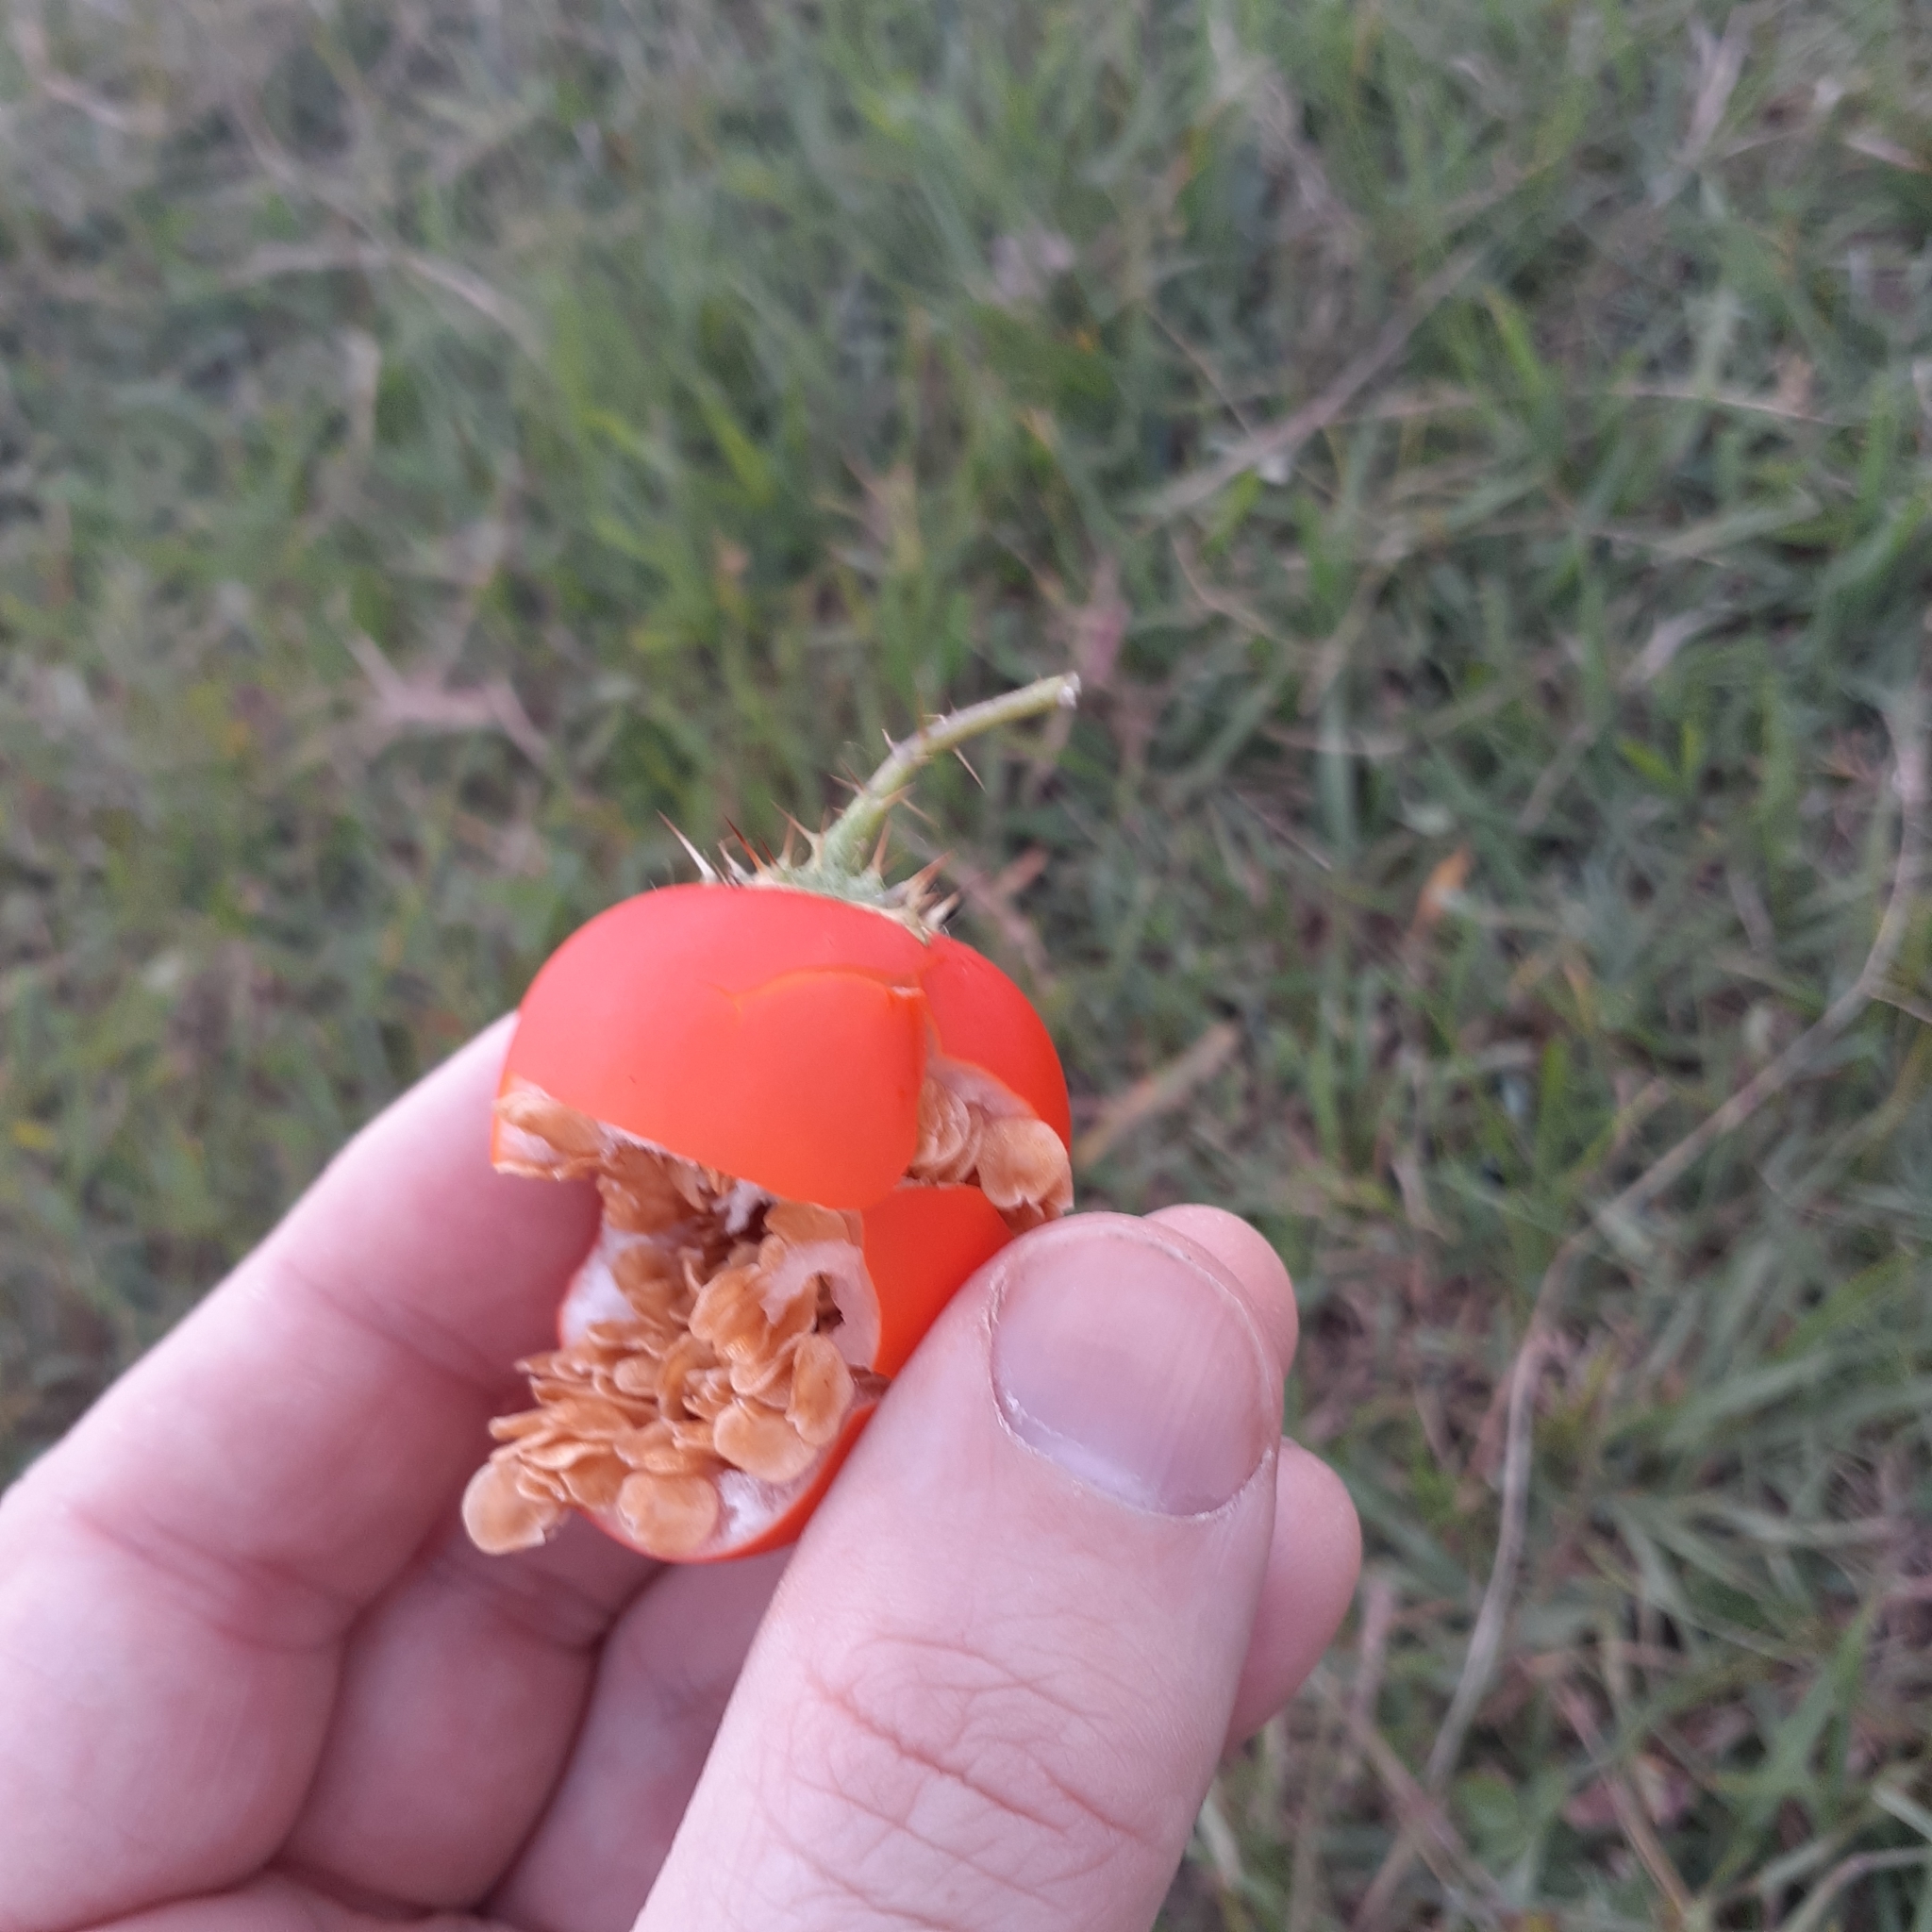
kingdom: Plantae
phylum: Tracheophyta
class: Magnoliopsida
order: Solanales
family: Solanaceae
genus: Solanum
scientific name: Solanum capsicoides
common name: Cockroach berry
